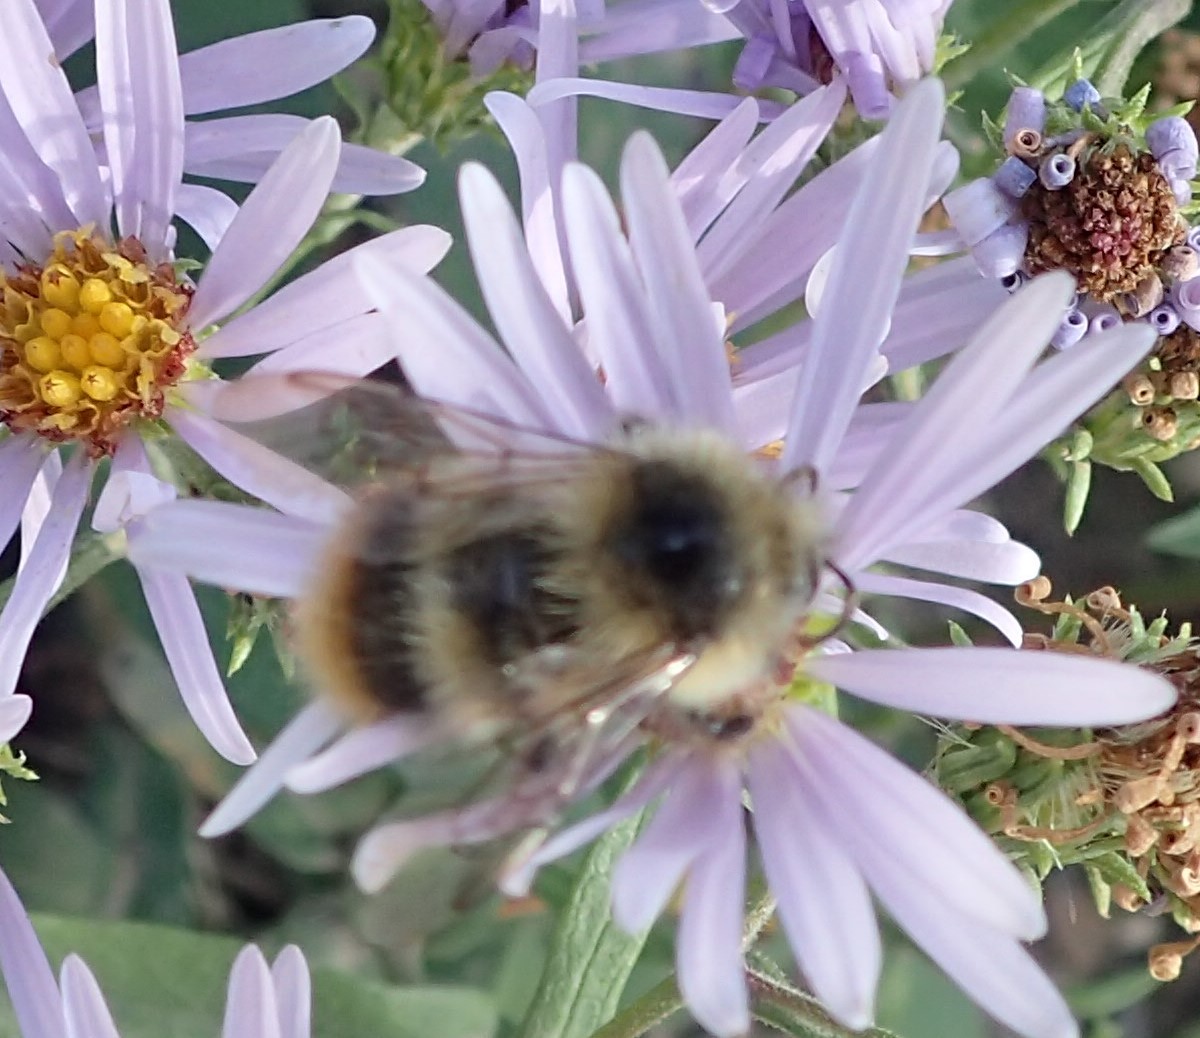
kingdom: Animalia
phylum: Arthropoda
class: Insecta
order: Hymenoptera
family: Apidae
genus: Bombus
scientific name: Bombus mixtus
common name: Fuzzy-horned bumble bee
